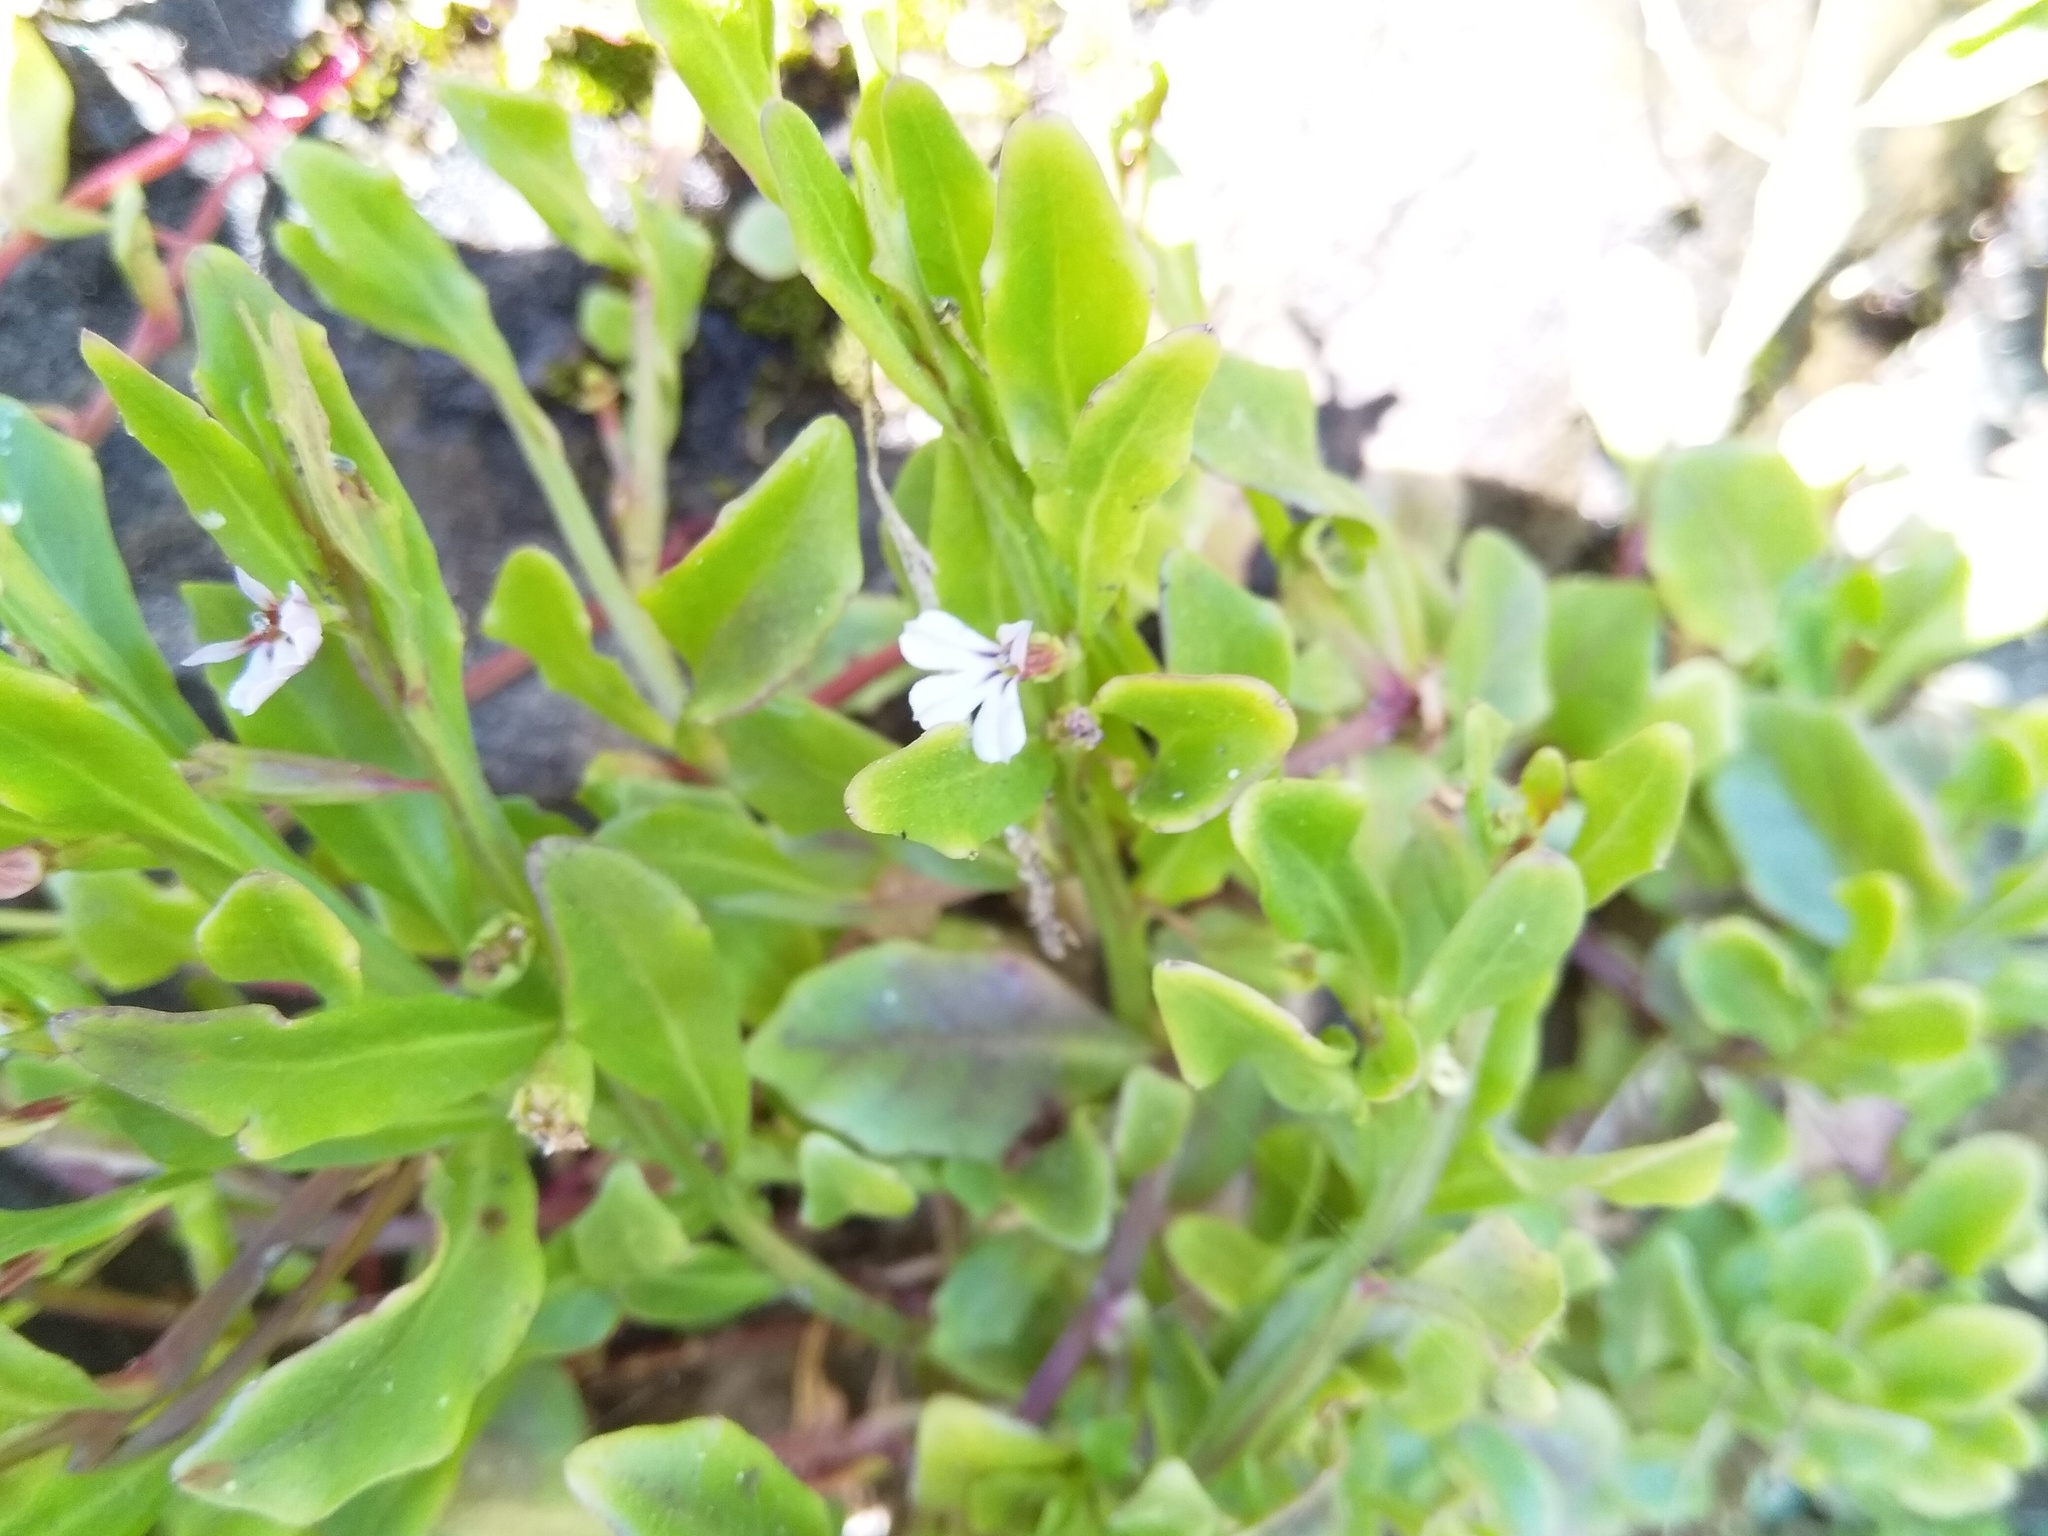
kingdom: Plantae
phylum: Tracheophyta
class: Magnoliopsida
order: Asterales
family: Campanulaceae
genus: Lobelia
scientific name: Lobelia anceps
